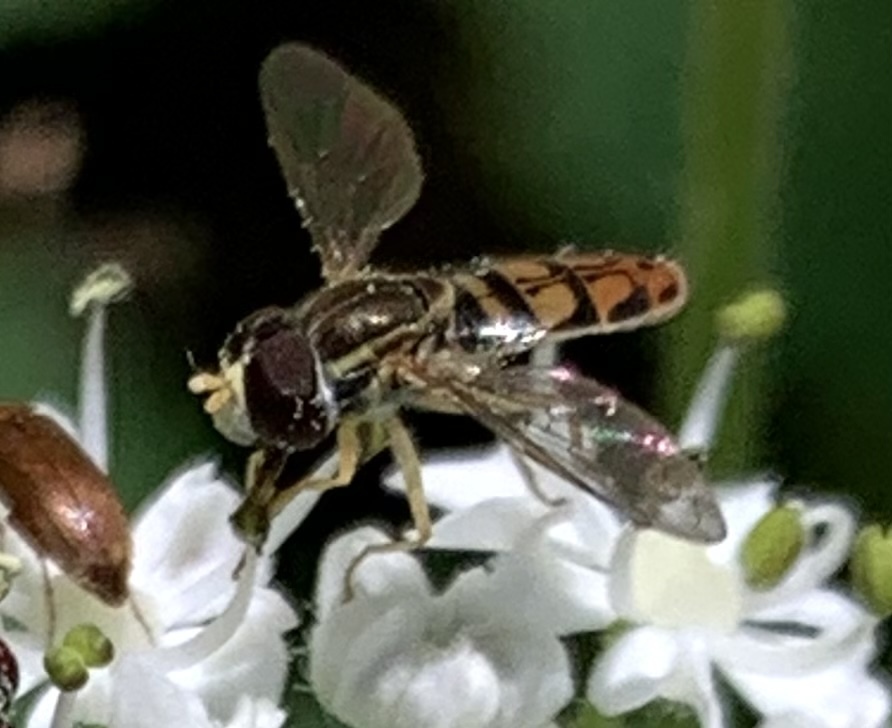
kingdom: Animalia
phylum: Arthropoda
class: Insecta
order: Diptera
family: Syrphidae
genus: Toxomerus
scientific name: Toxomerus marginatus
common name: Syrphid fly
